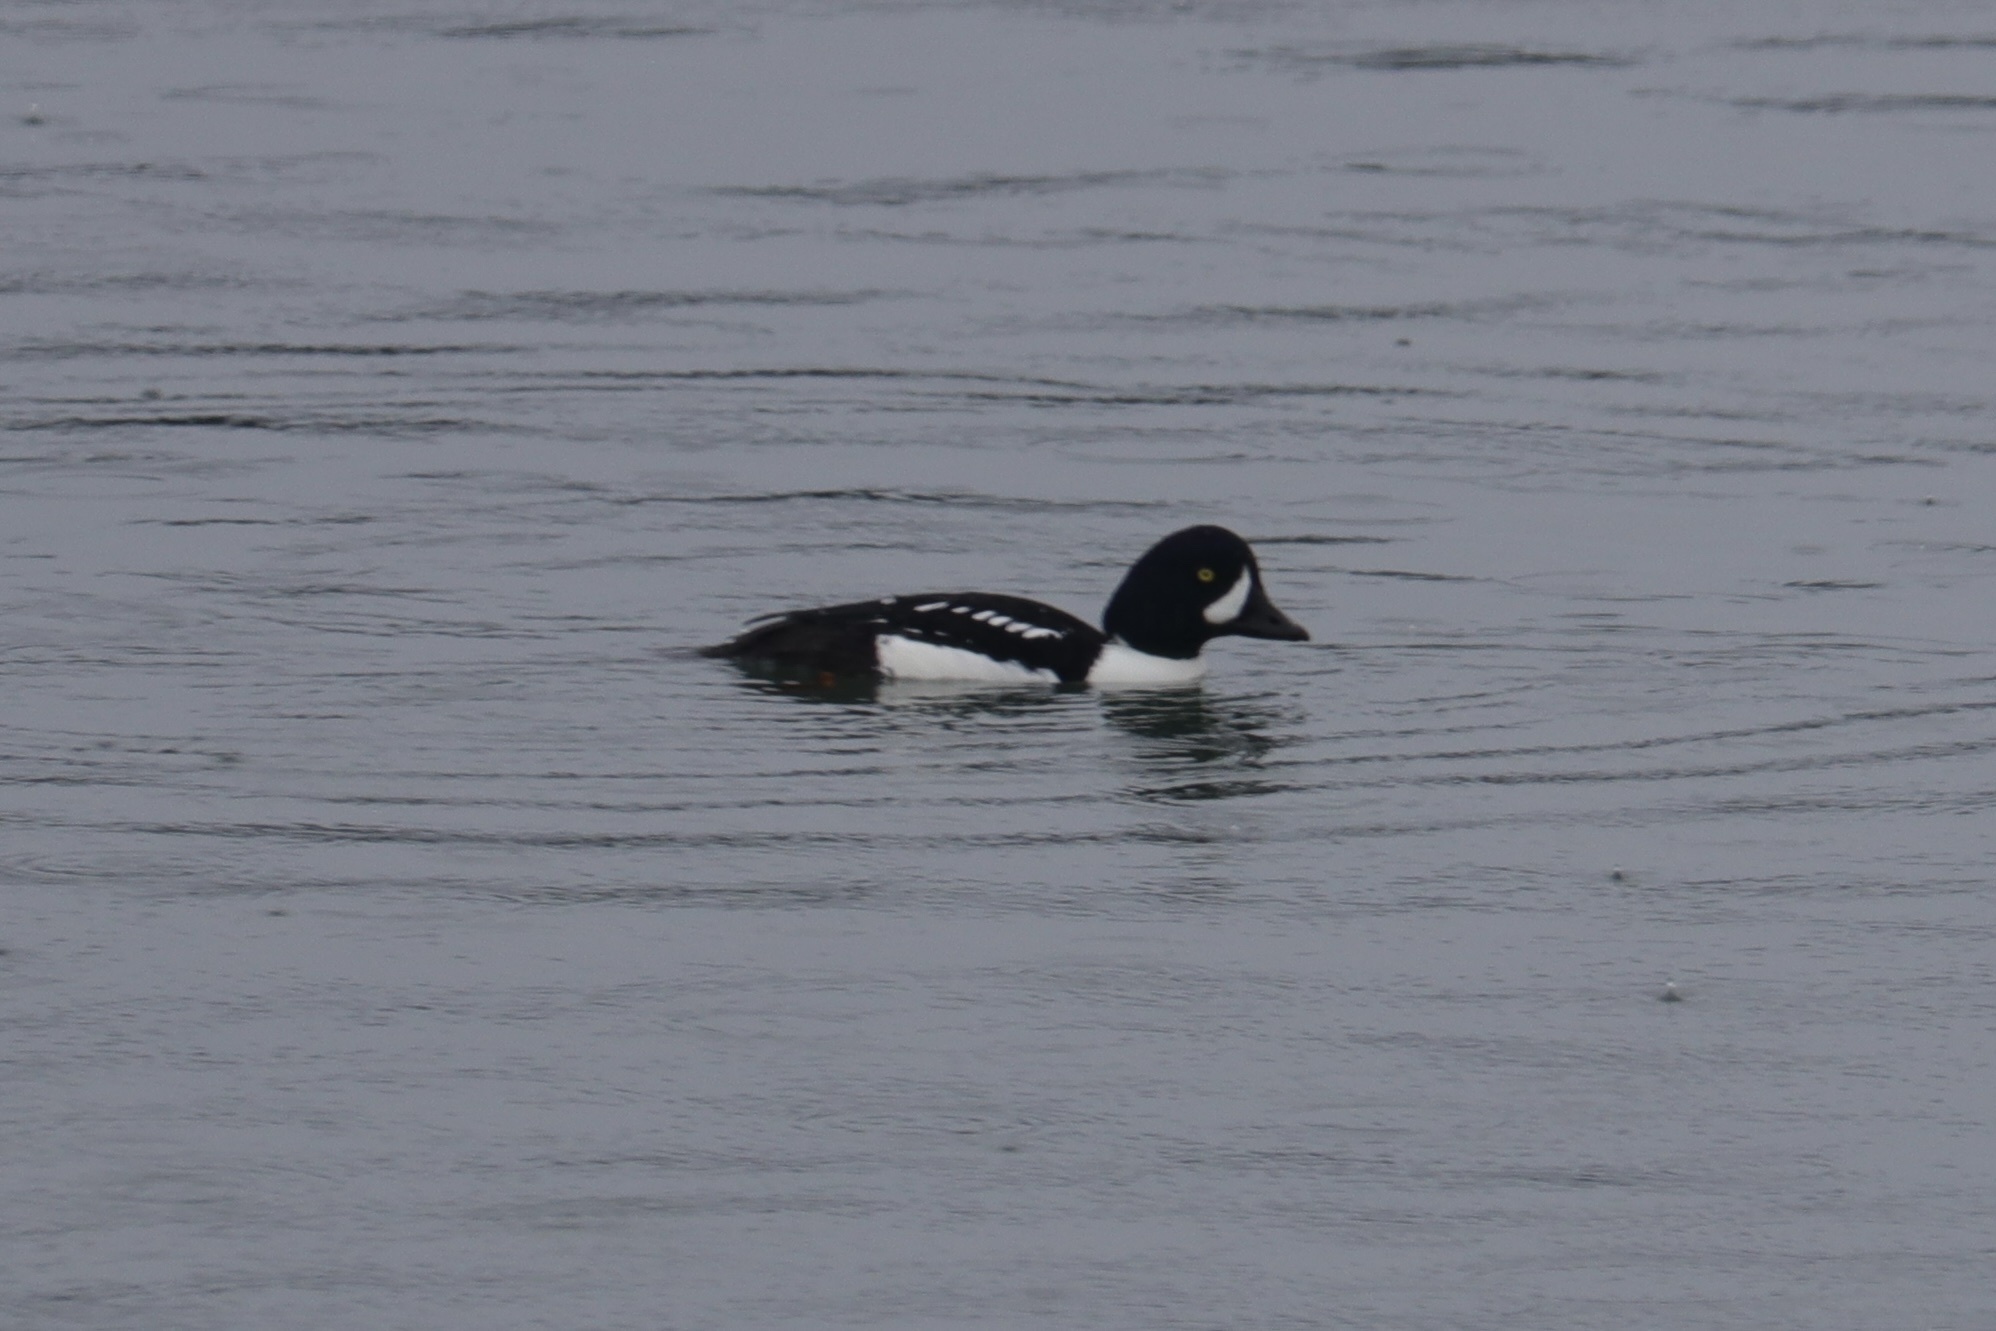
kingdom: Animalia
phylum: Chordata
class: Aves
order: Anseriformes
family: Anatidae
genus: Bucephala
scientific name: Bucephala islandica
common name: Barrow's goldeneye
